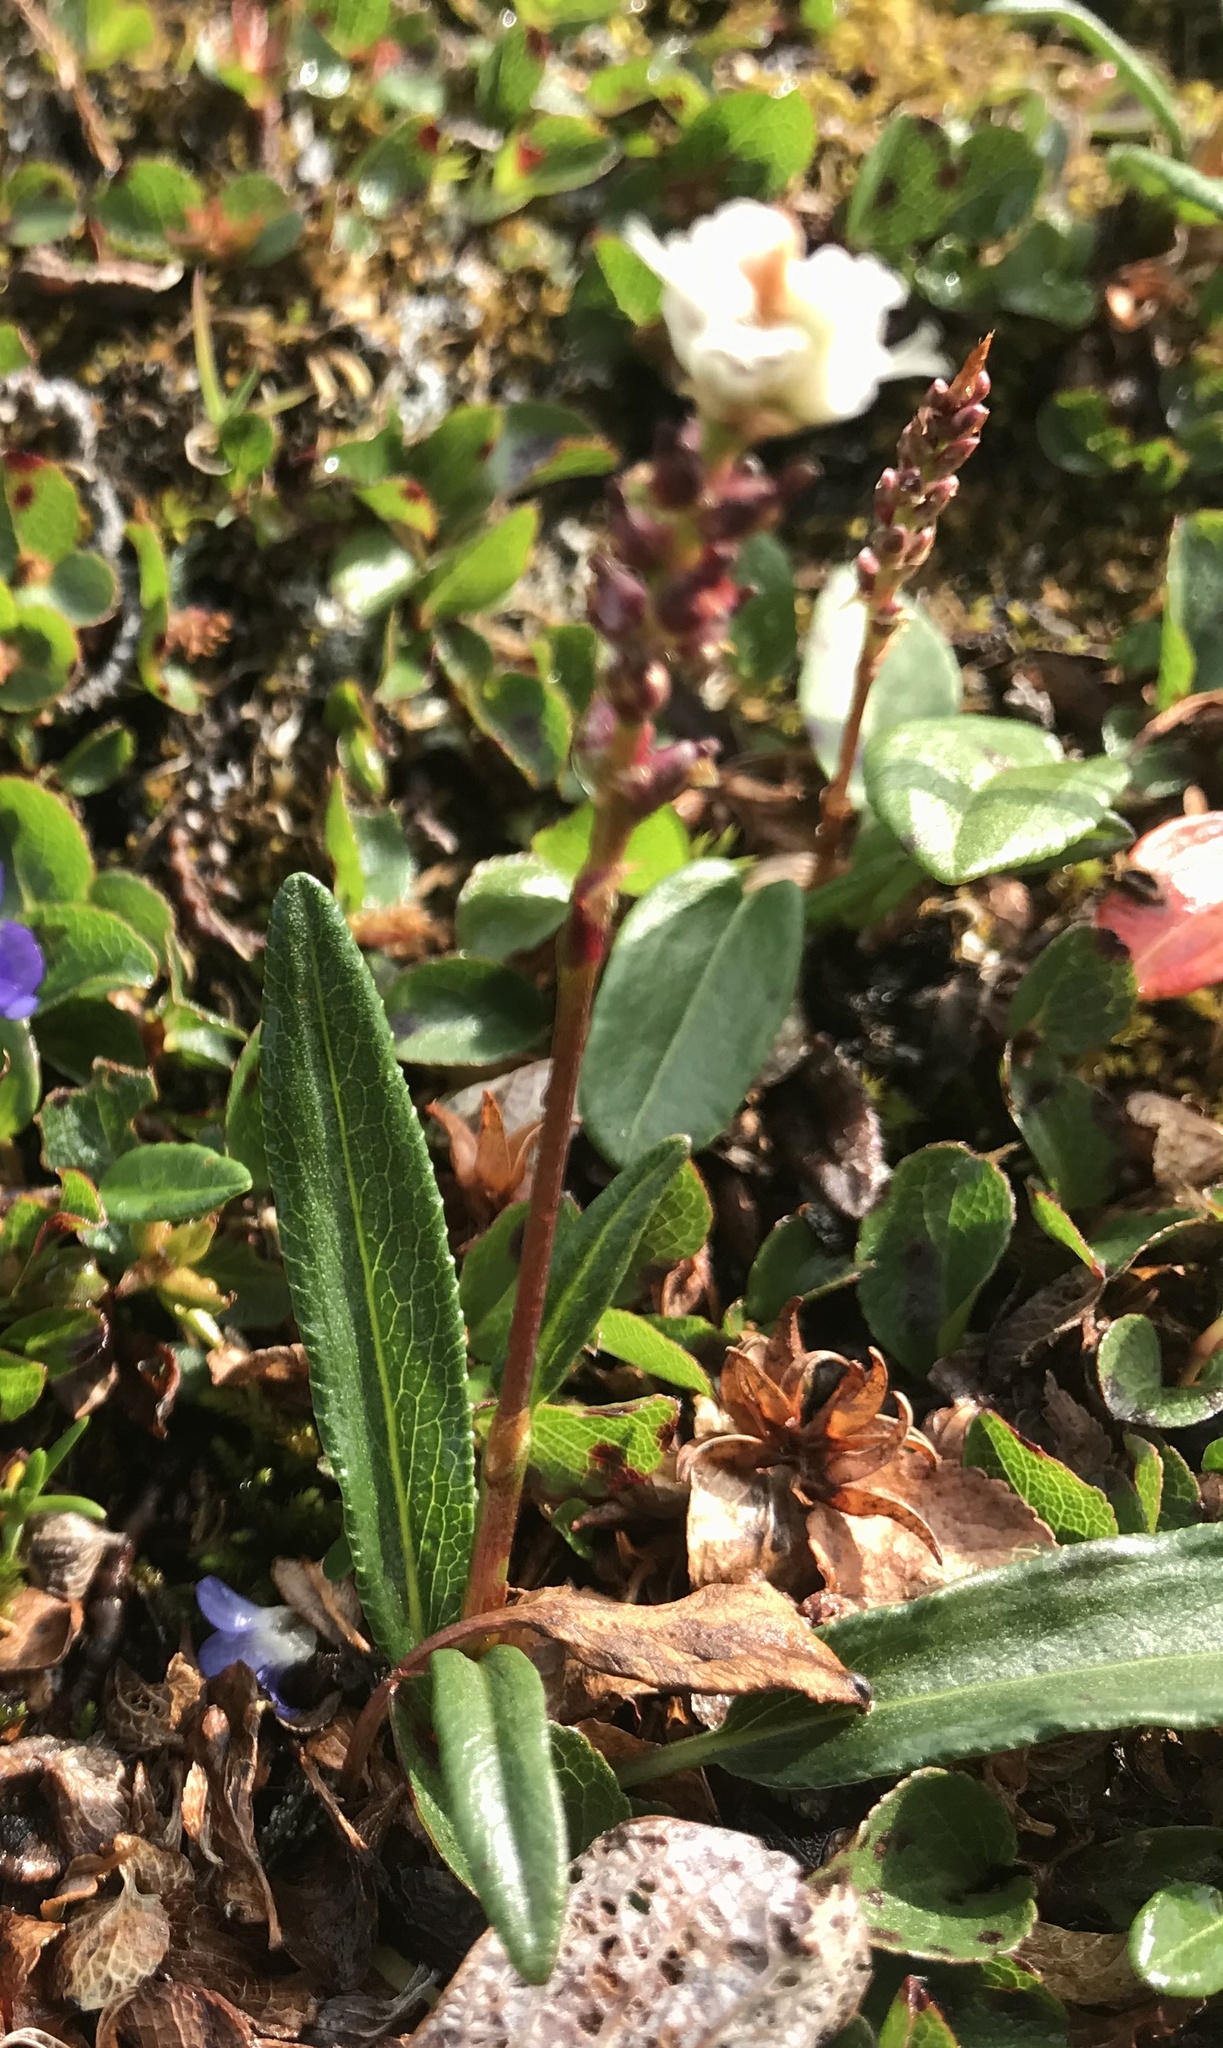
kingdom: Plantae
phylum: Tracheophyta
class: Magnoliopsida
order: Caryophyllales
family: Polygonaceae
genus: Bistorta
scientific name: Bistorta vivipara
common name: Alpine bistort
